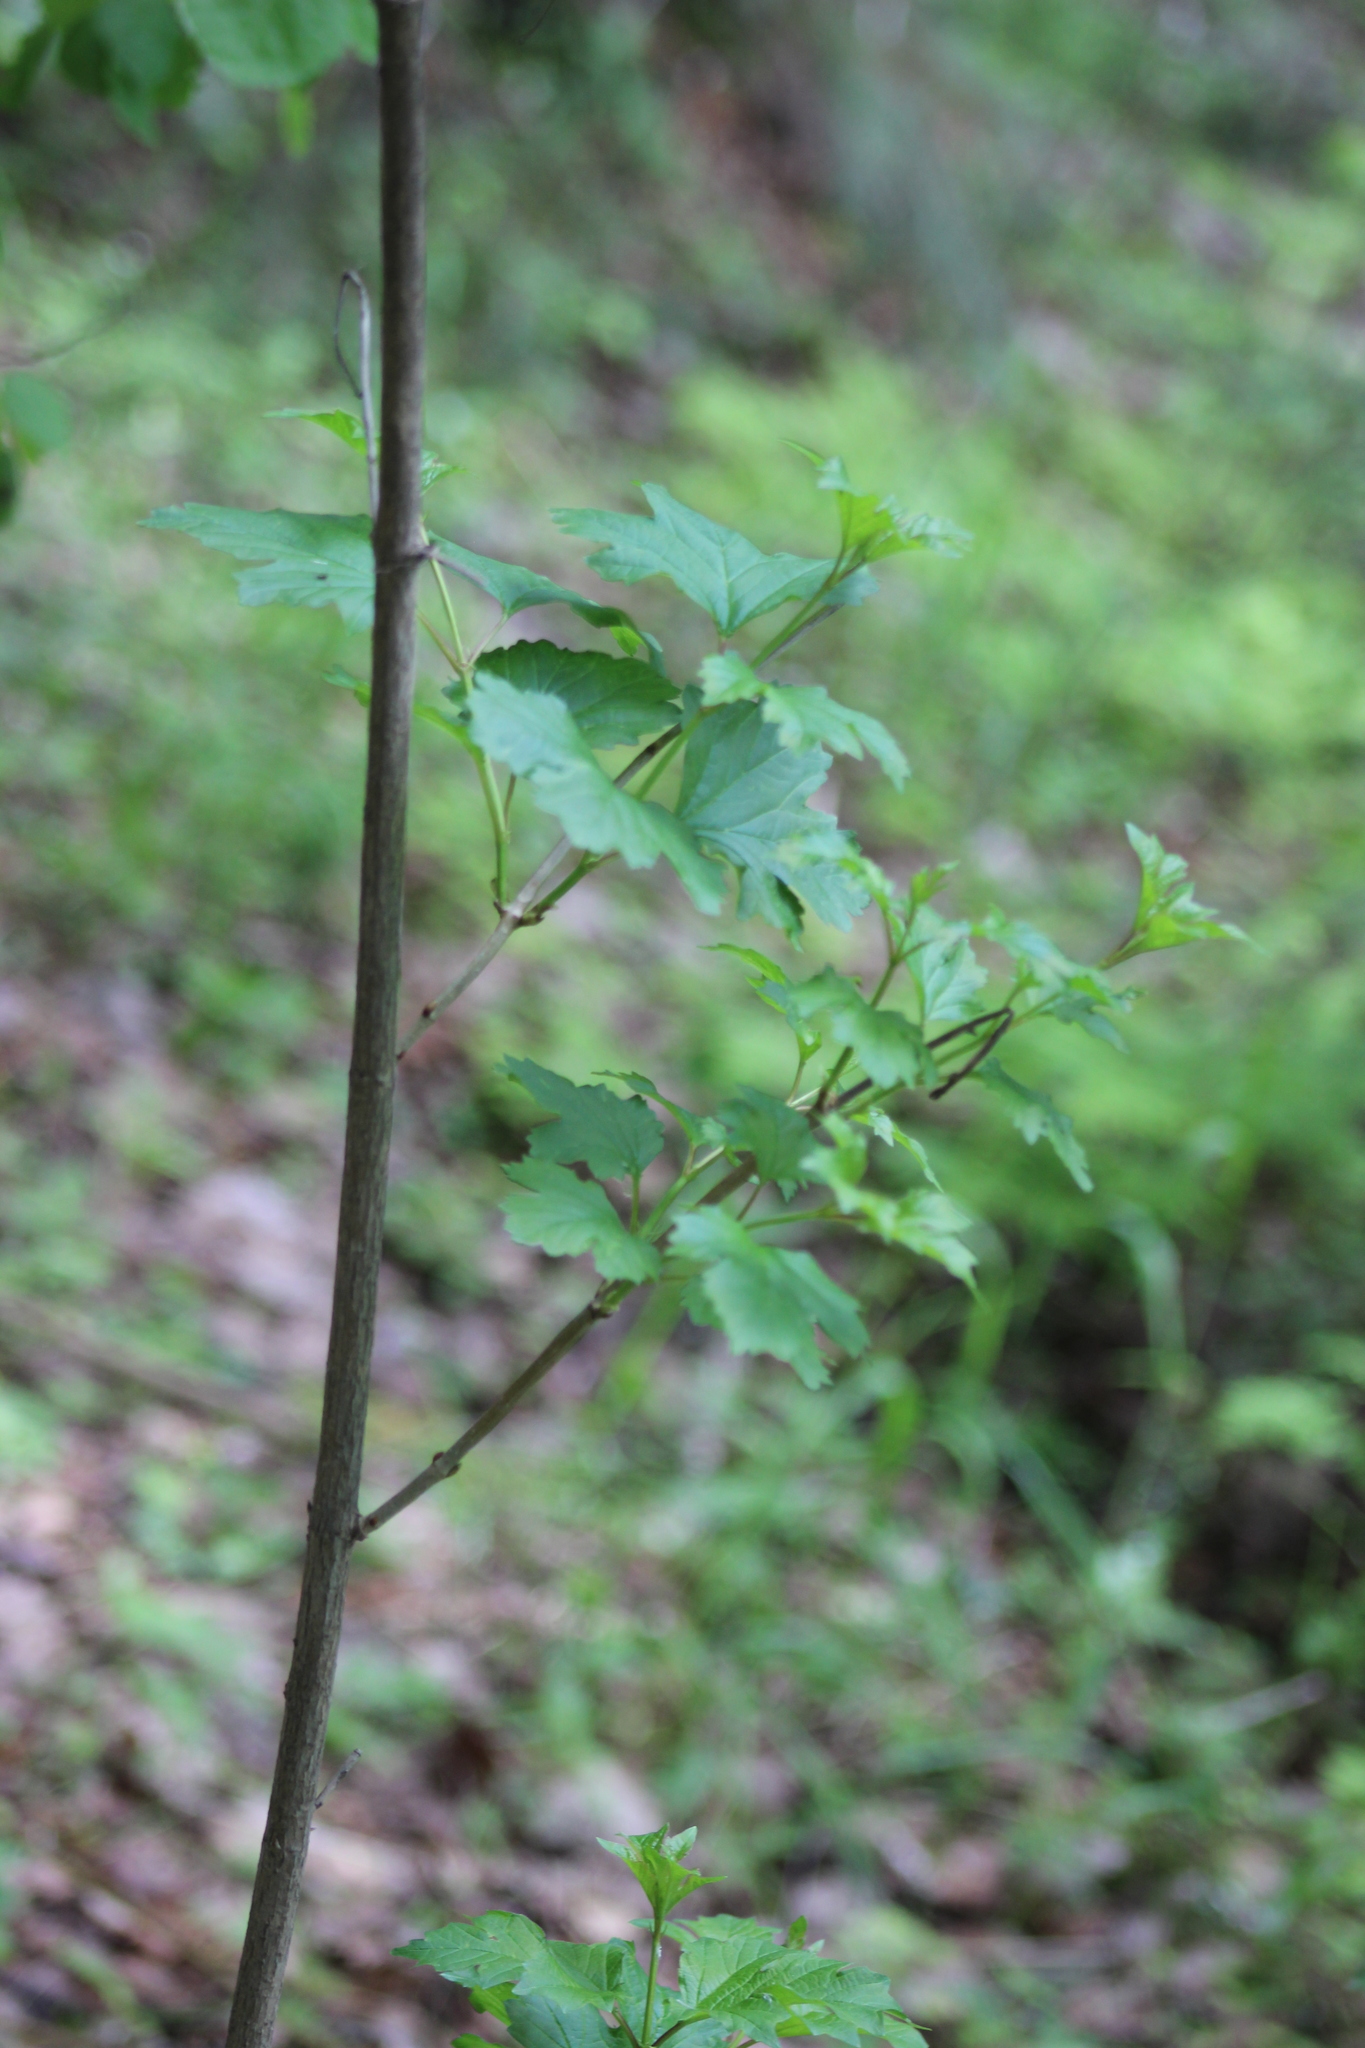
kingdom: Plantae
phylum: Tracheophyta
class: Magnoliopsida
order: Dipsacales
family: Viburnaceae
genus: Viburnum
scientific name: Viburnum opulus
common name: Guelder-rose
